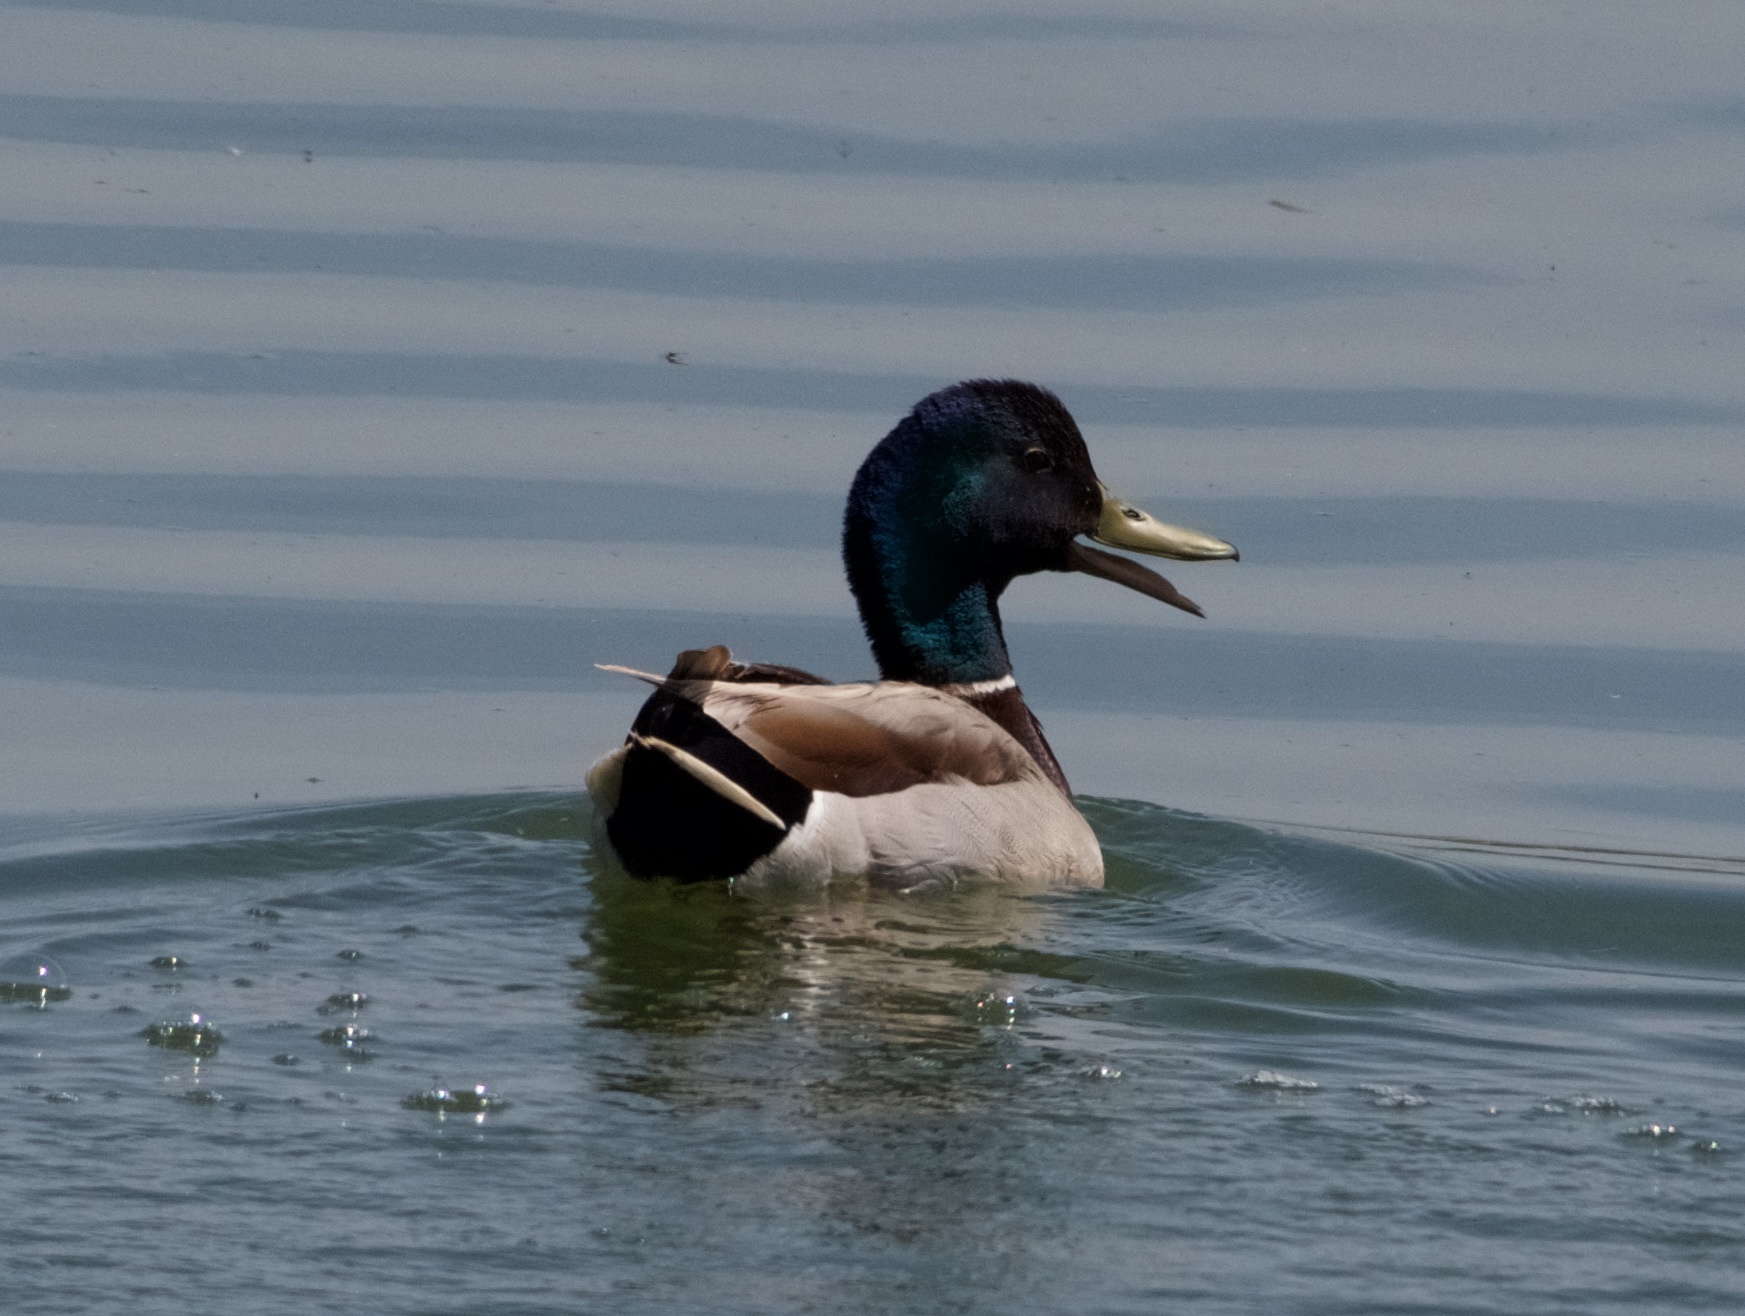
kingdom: Animalia
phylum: Chordata
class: Aves
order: Anseriformes
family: Anatidae
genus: Anas
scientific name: Anas platyrhynchos
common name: Mallard
